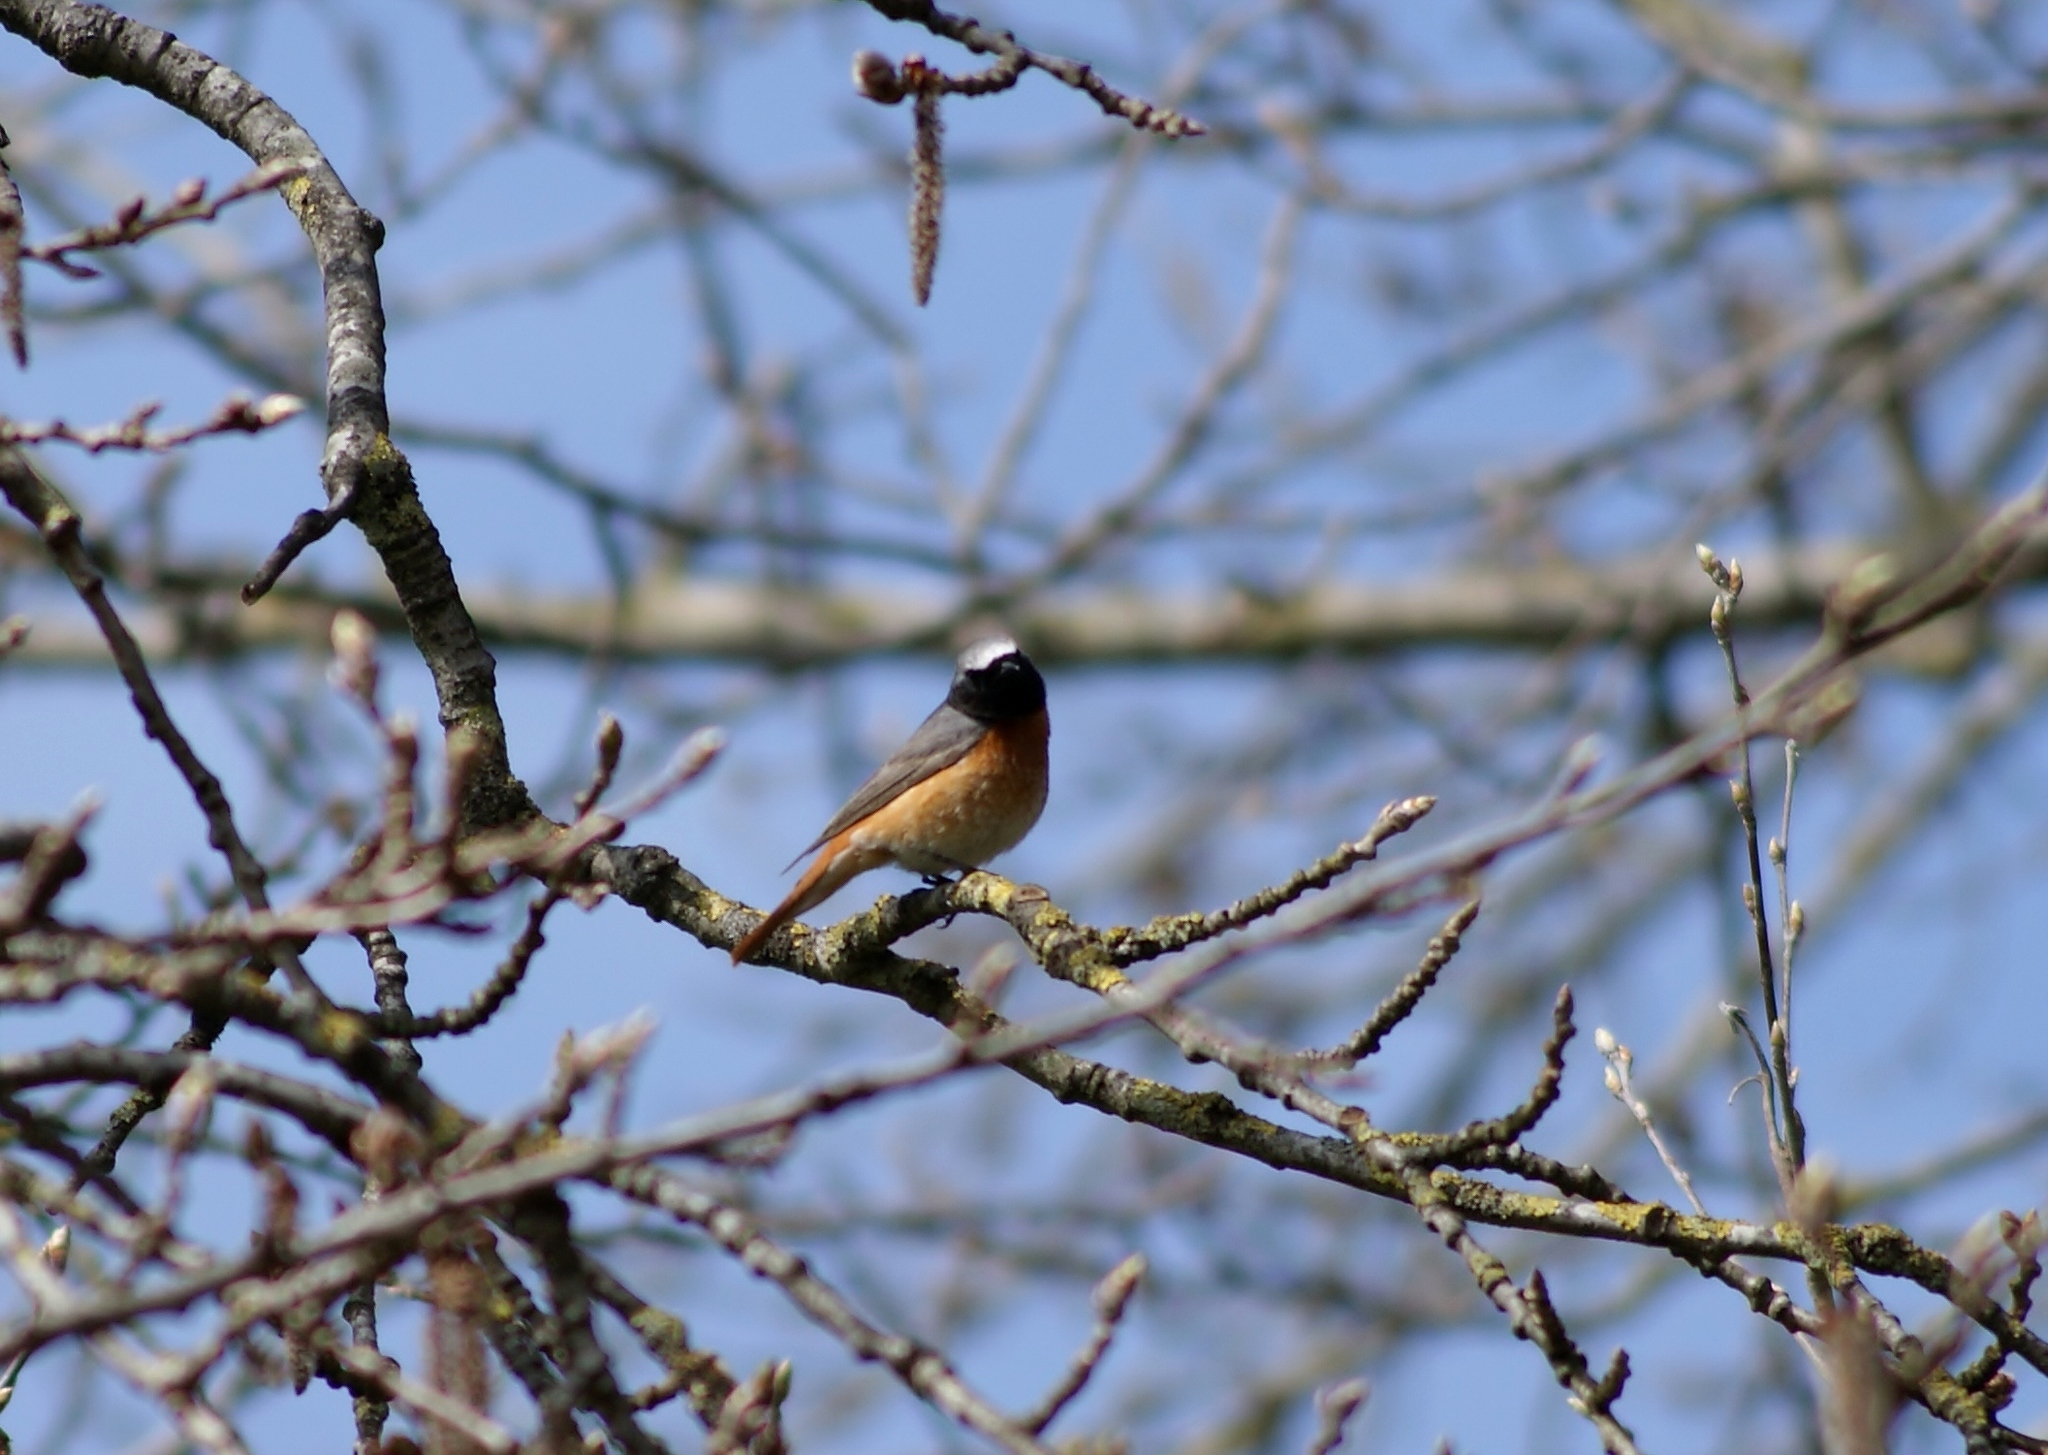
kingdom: Animalia
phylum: Chordata
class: Aves
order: Passeriformes
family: Muscicapidae
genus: Phoenicurus
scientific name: Phoenicurus phoenicurus
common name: Common redstart
